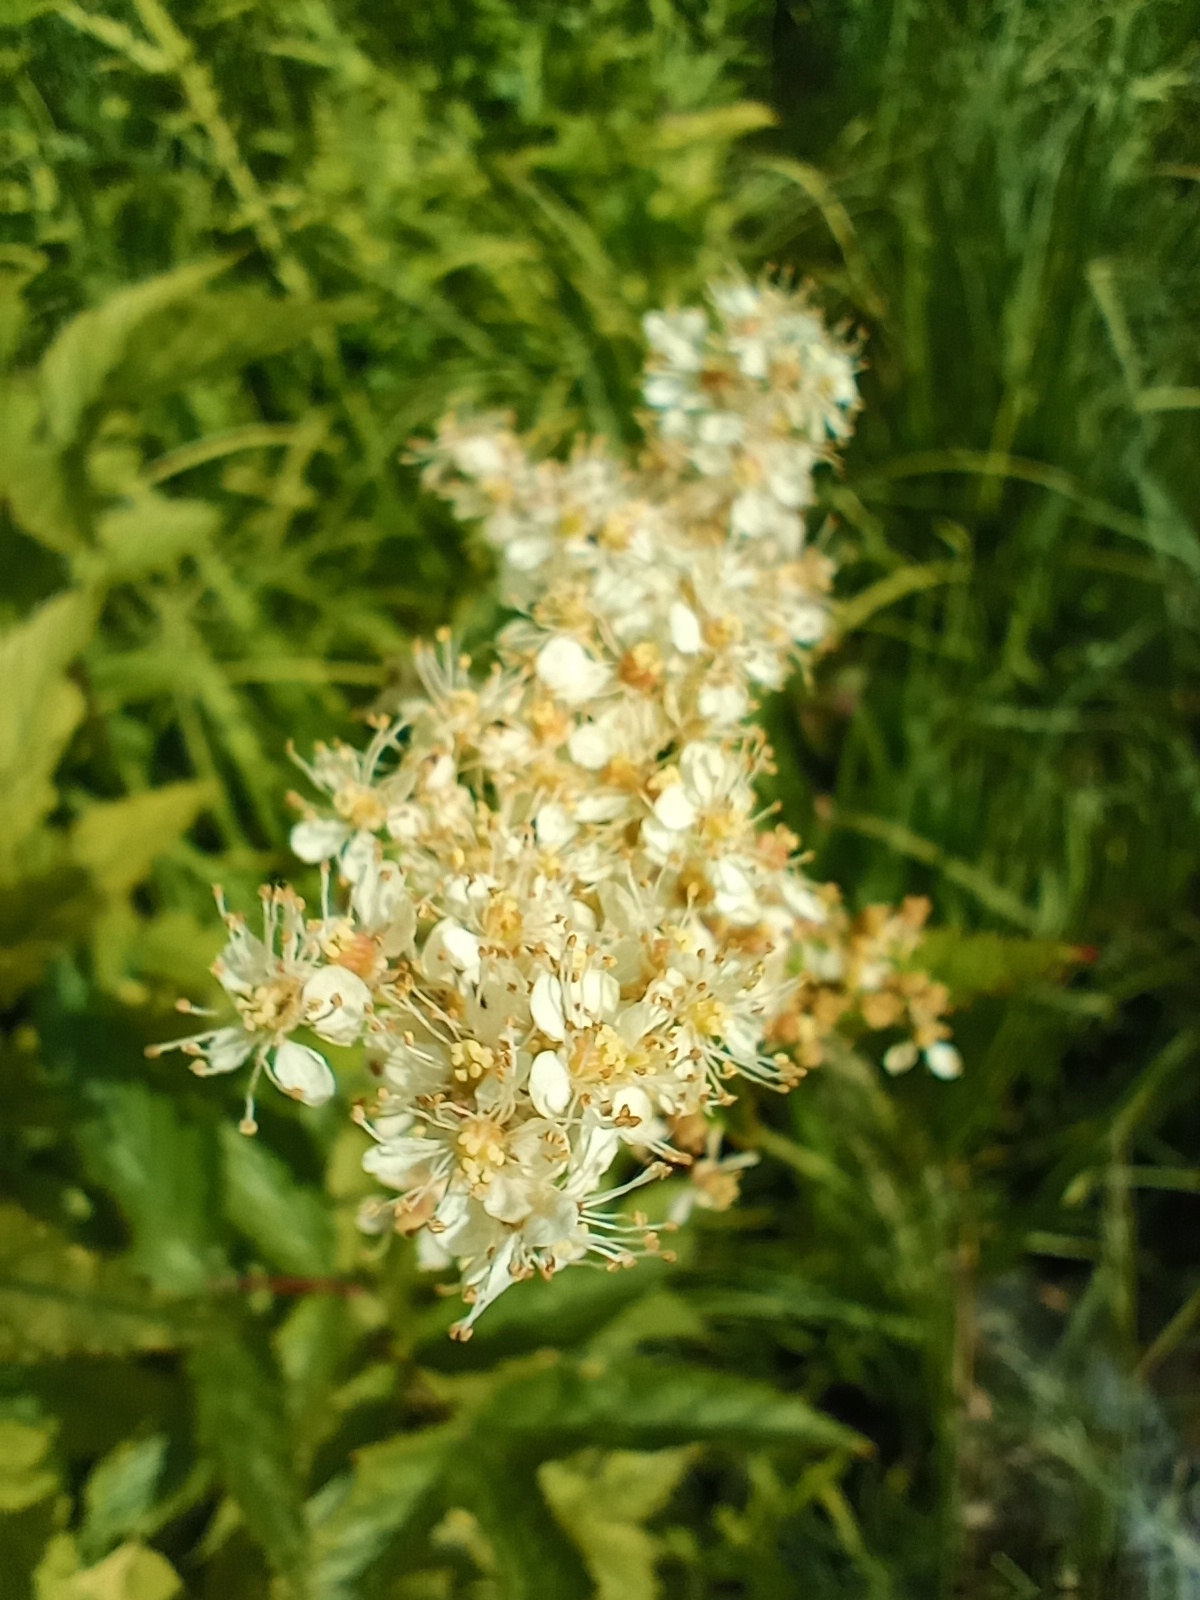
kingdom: Plantae
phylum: Tracheophyta
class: Magnoliopsida
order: Rosales
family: Rosaceae
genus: Filipendula
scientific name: Filipendula ulmaria
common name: Meadowsweet
